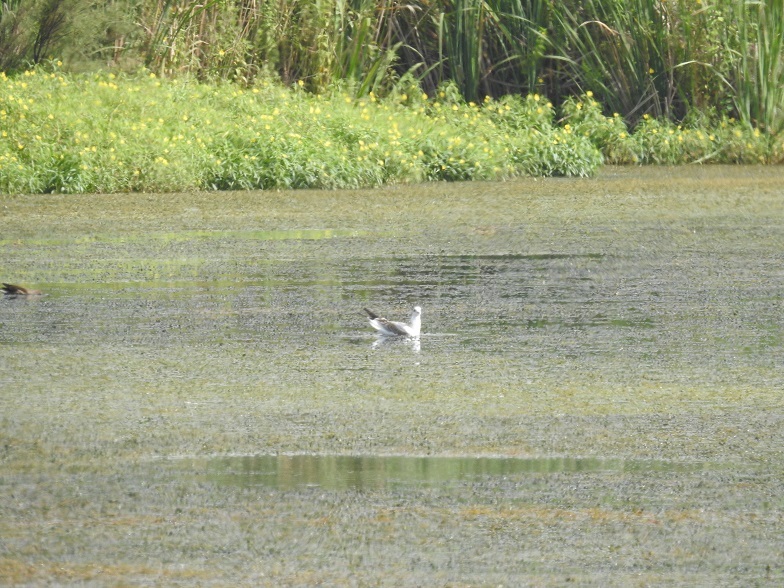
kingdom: Animalia
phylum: Chordata
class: Aves
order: Charadriiformes
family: Laridae
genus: Chroicocephalus
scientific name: Chroicocephalus ridibundus
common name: Black-headed gull
